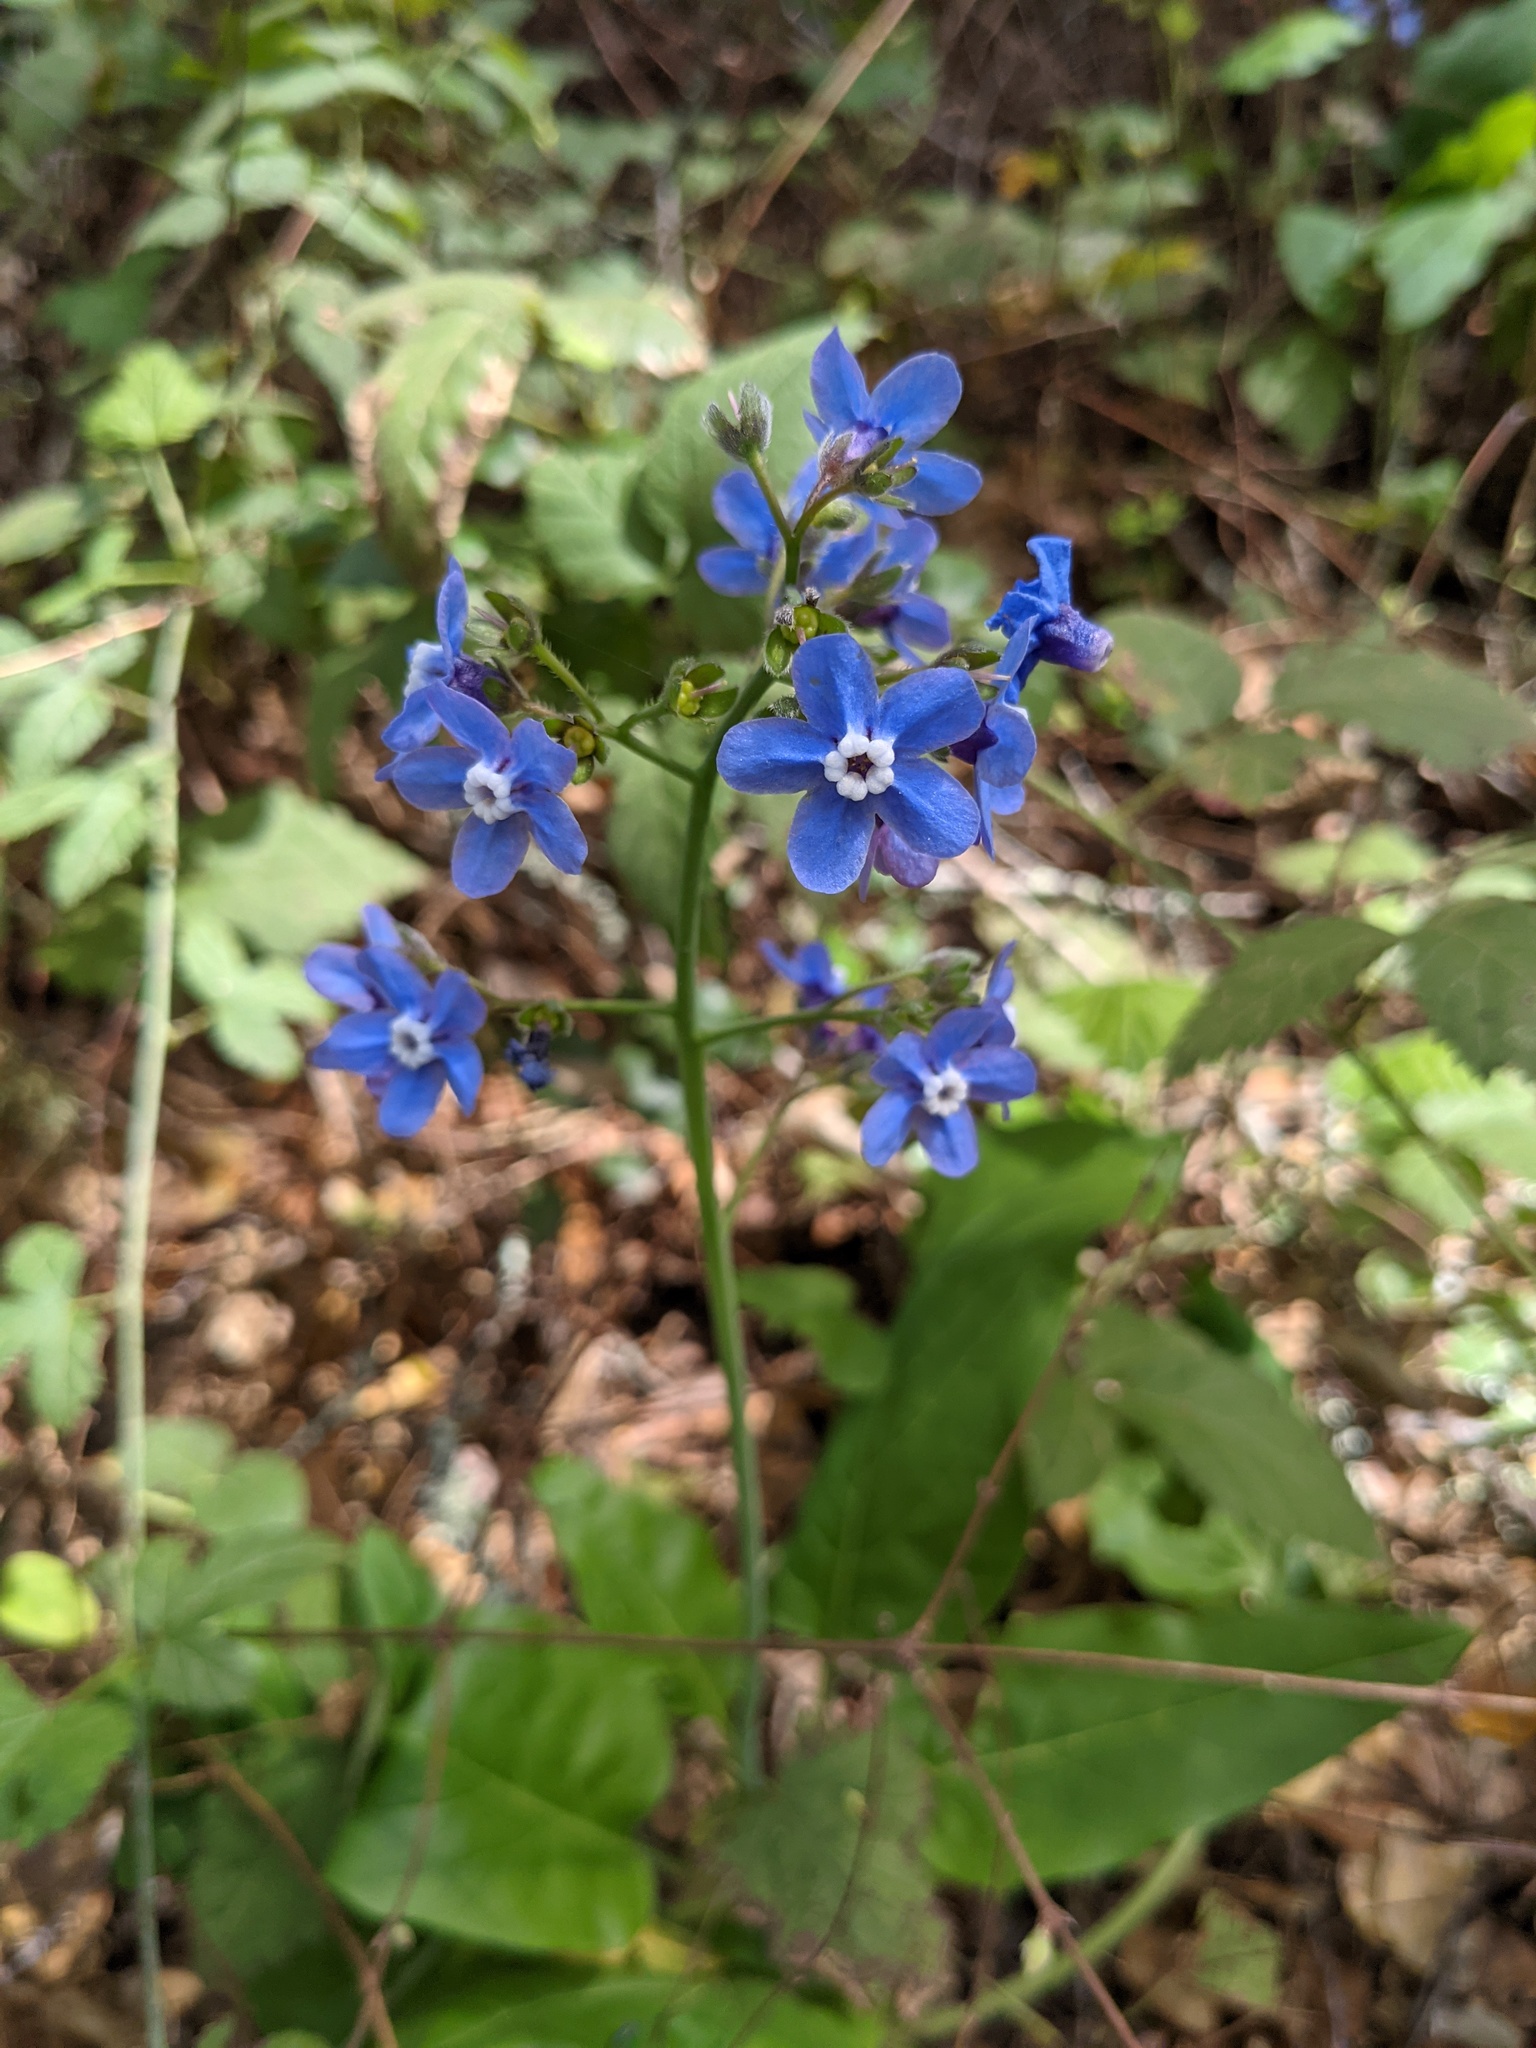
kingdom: Plantae
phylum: Tracheophyta
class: Magnoliopsida
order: Boraginales
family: Boraginaceae
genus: Adelinia
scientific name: Adelinia grande
